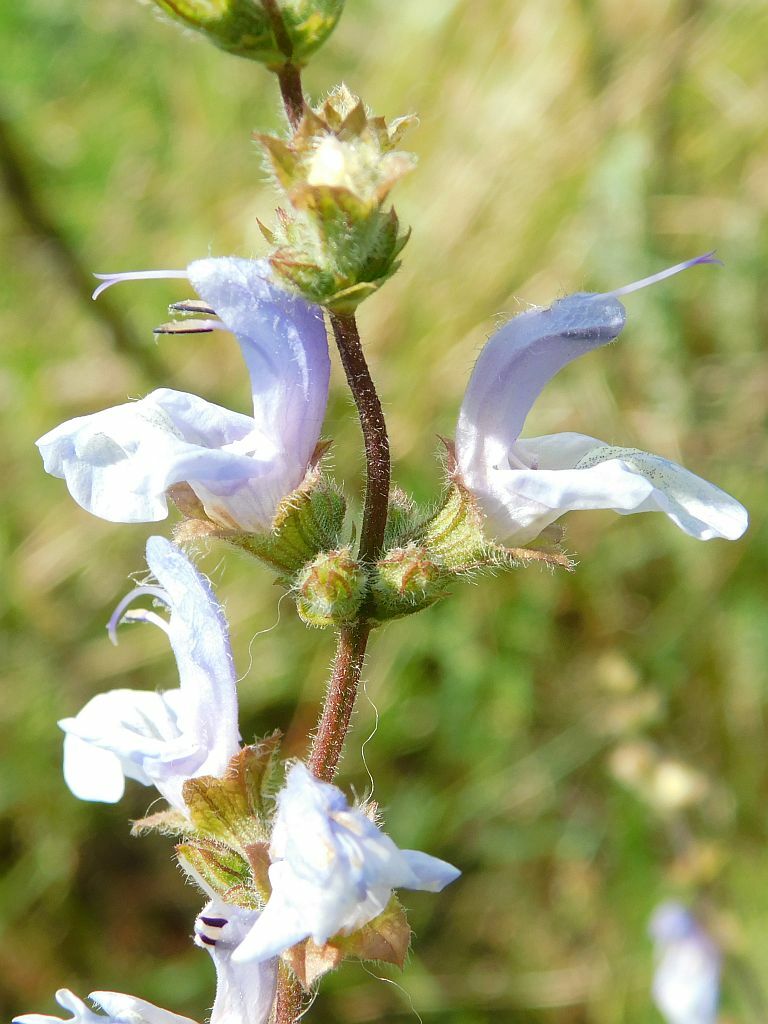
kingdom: Plantae
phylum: Tracheophyta
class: Magnoliopsida
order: Lamiales
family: Lamiaceae
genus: Salvia
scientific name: Salvia africana
